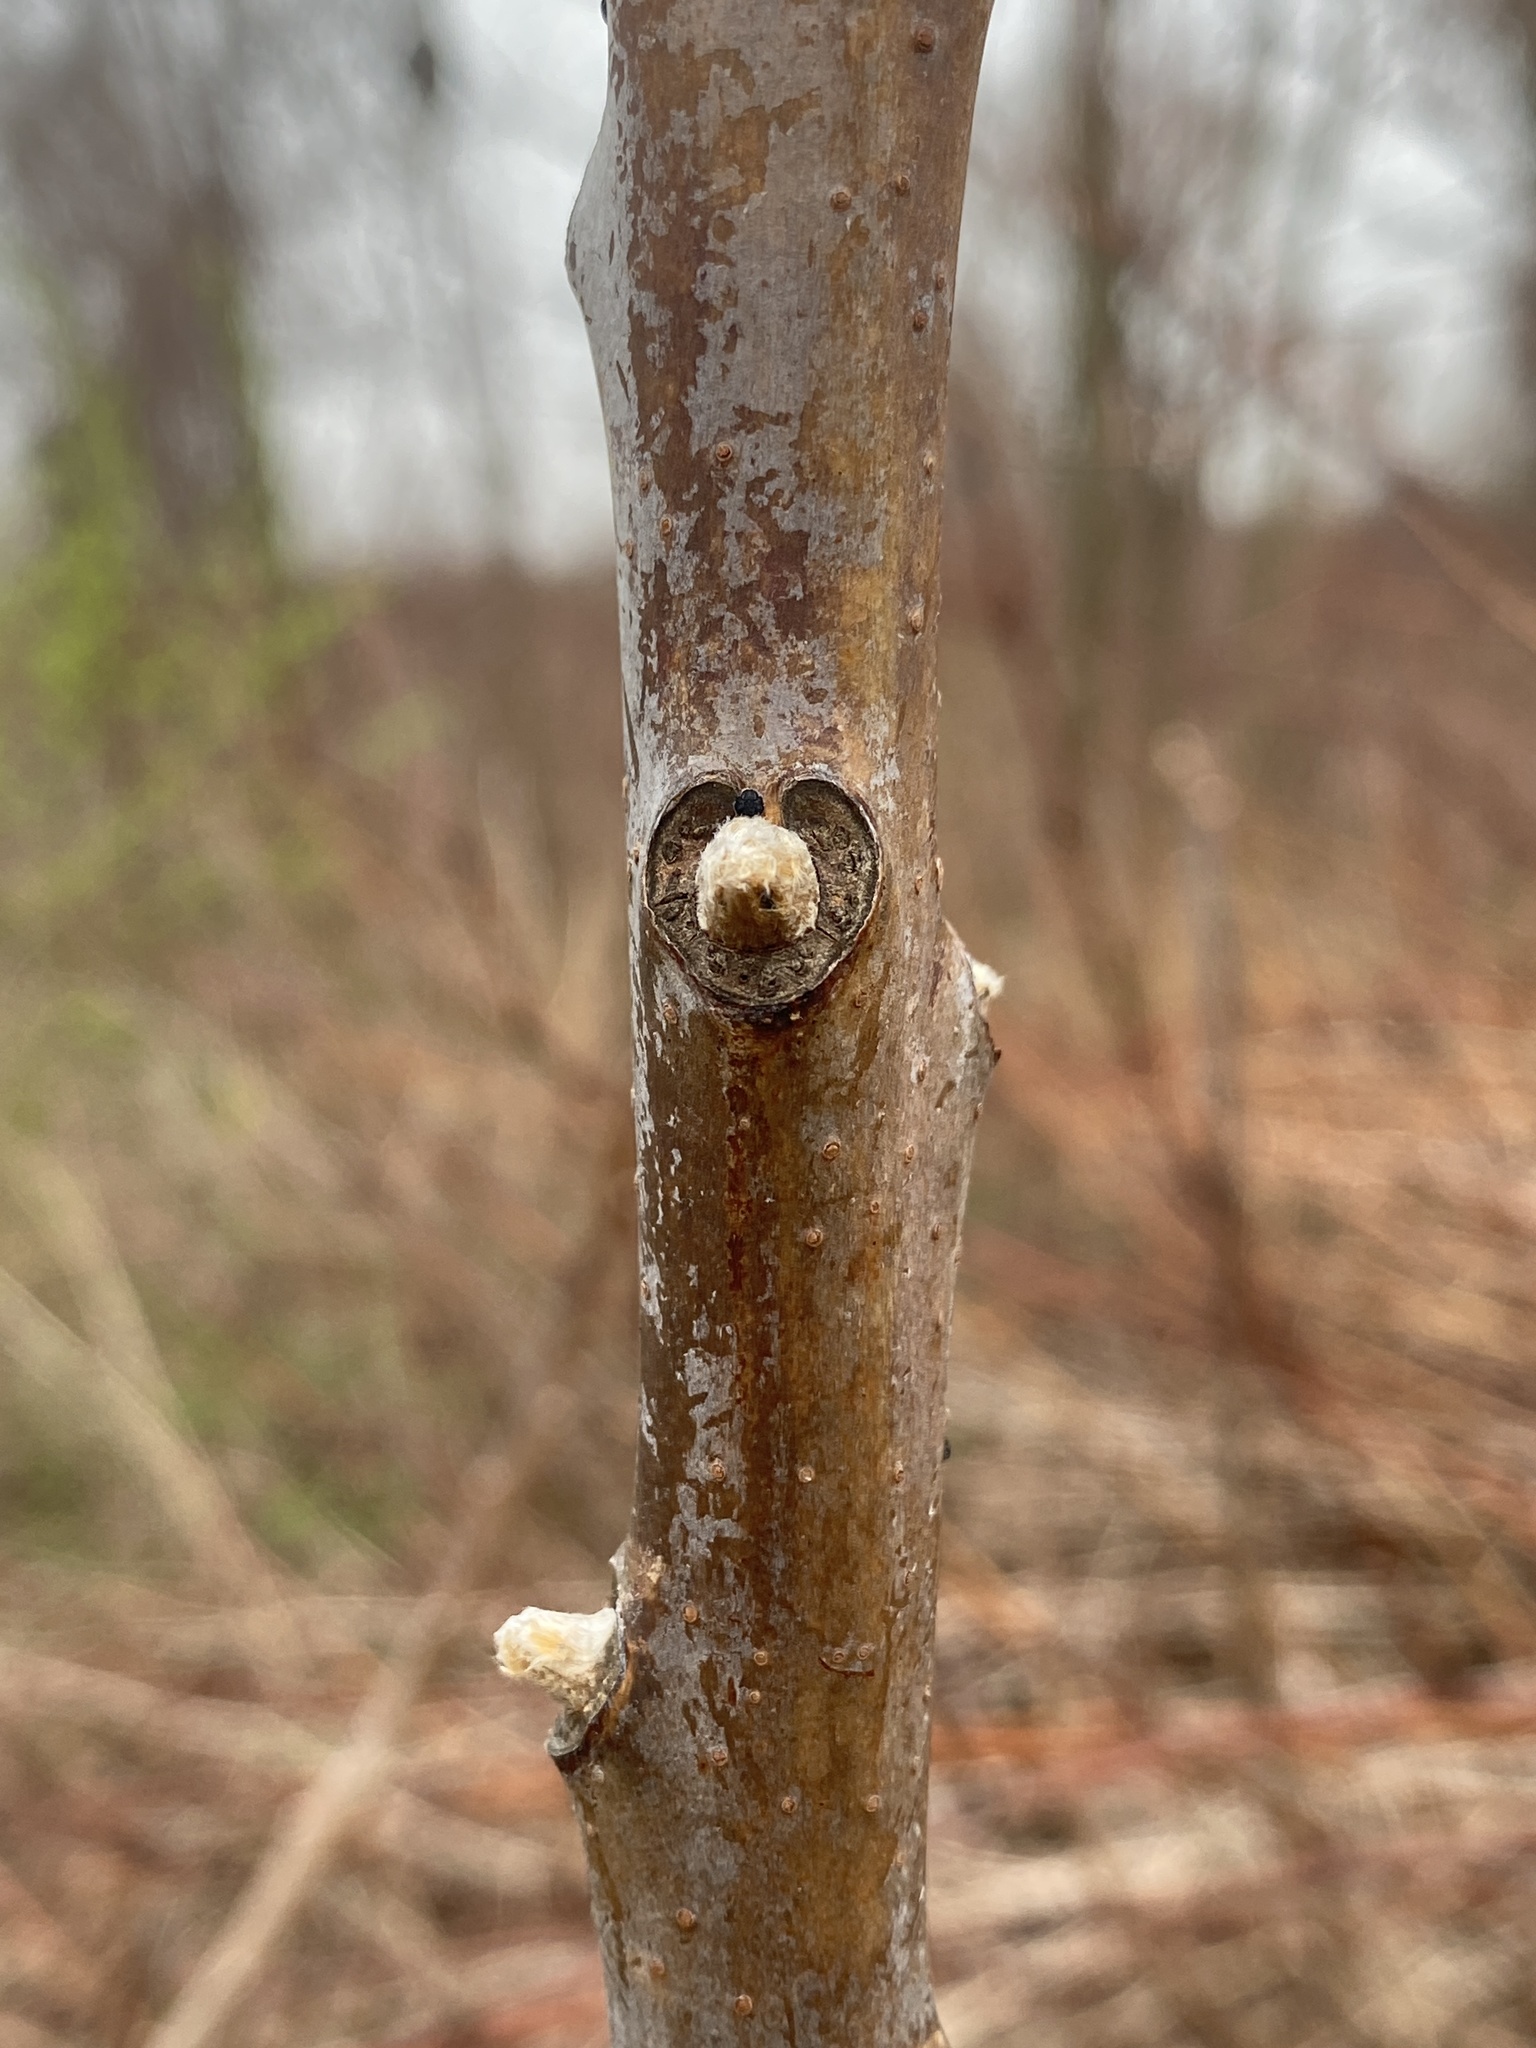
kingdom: Plantae
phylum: Tracheophyta
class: Magnoliopsida
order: Sapindales
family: Anacardiaceae
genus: Rhus
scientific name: Rhus glabra
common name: Scarlet sumac
